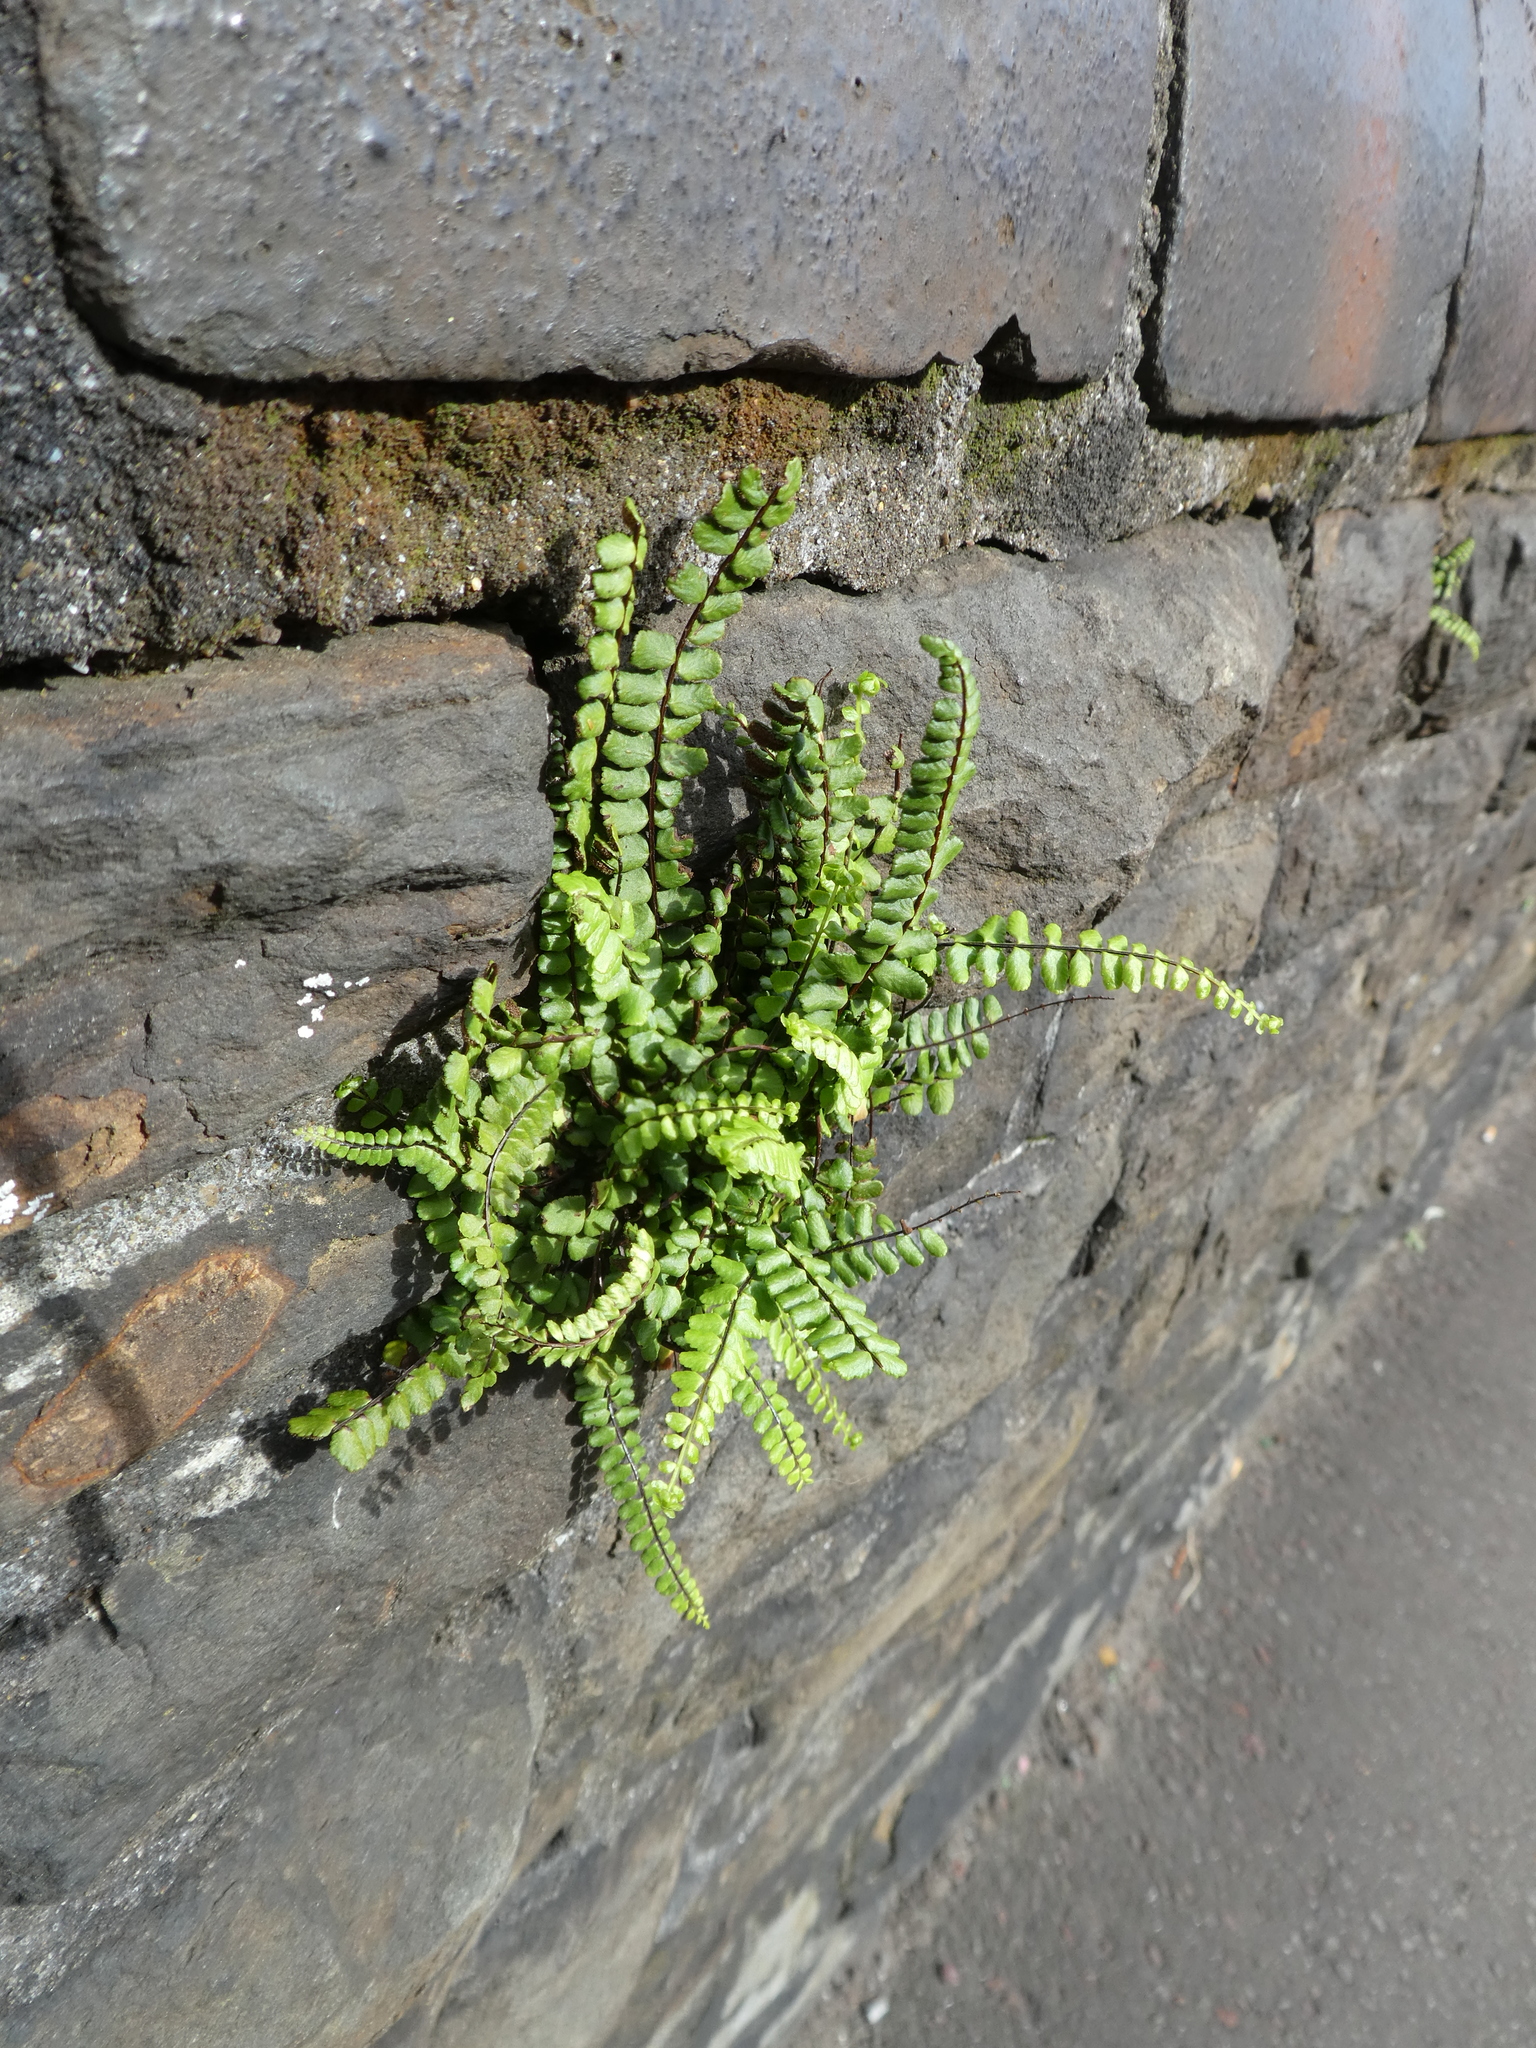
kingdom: Plantae
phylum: Tracheophyta
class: Polypodiopsida
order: Polypodiales
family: Aspleniaceae
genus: Asplenium
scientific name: Asplenium trichomanes
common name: Maidenhair spleenwort
